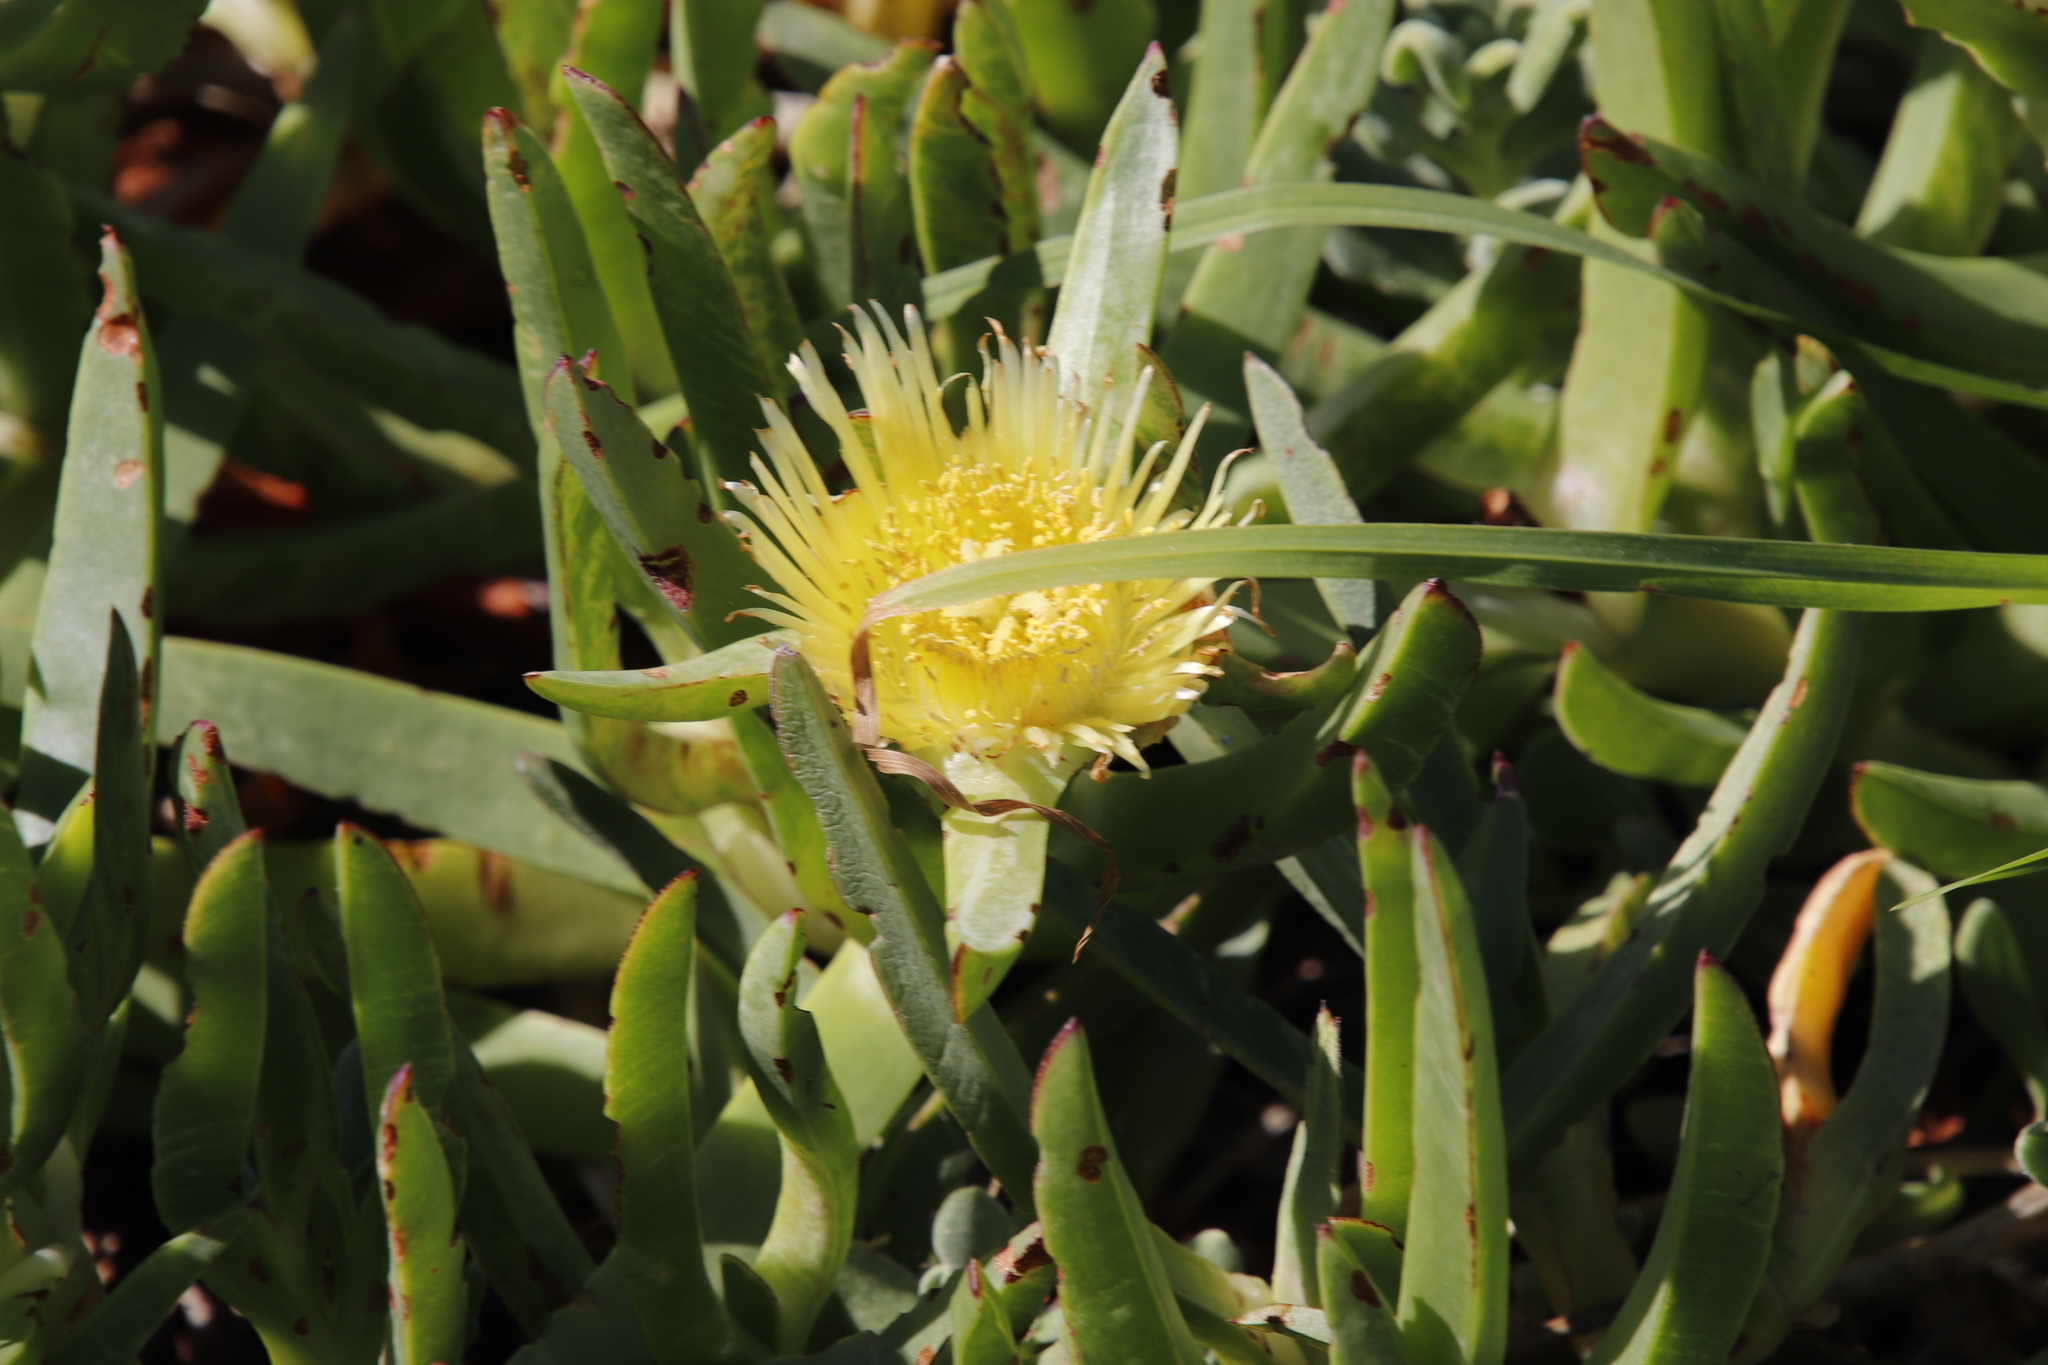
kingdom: Plantae
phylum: Tracheophyta
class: Magnoliopsida
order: Caryophyllales
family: Aizoaceae
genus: Carpobrotus
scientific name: Carpobrotus edulis
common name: Hottentot-fig
